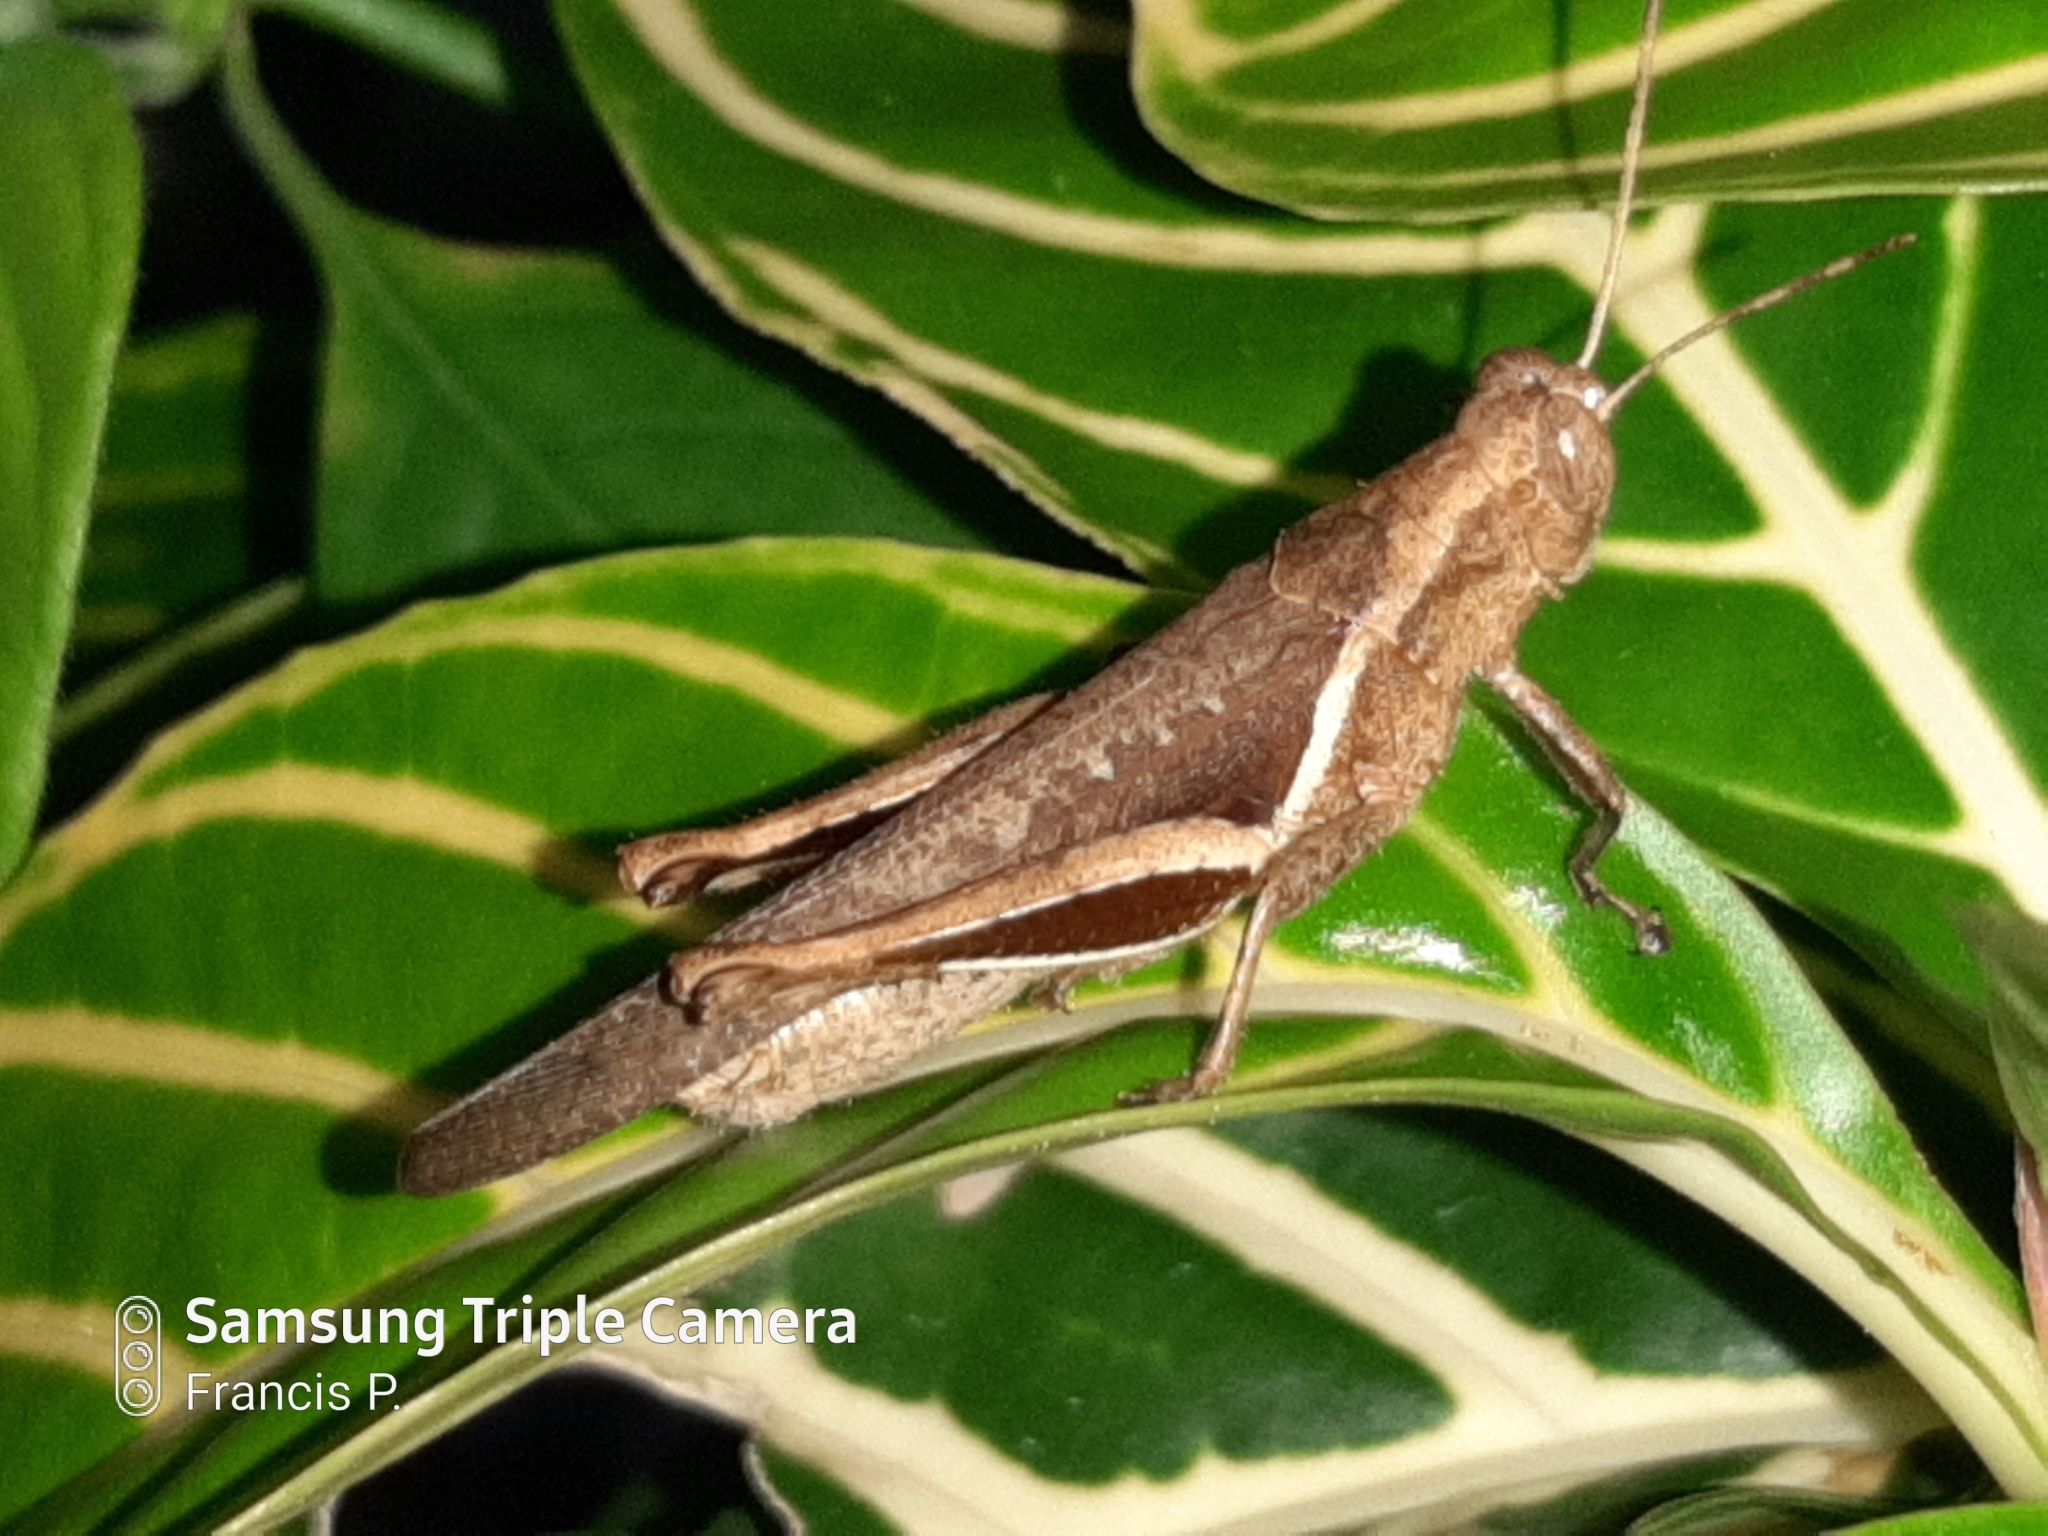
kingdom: Animalia
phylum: Arthropoda
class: Insecta
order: Orthoptera
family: Acrididae
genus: Abracris
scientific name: Abracris flavolineata
